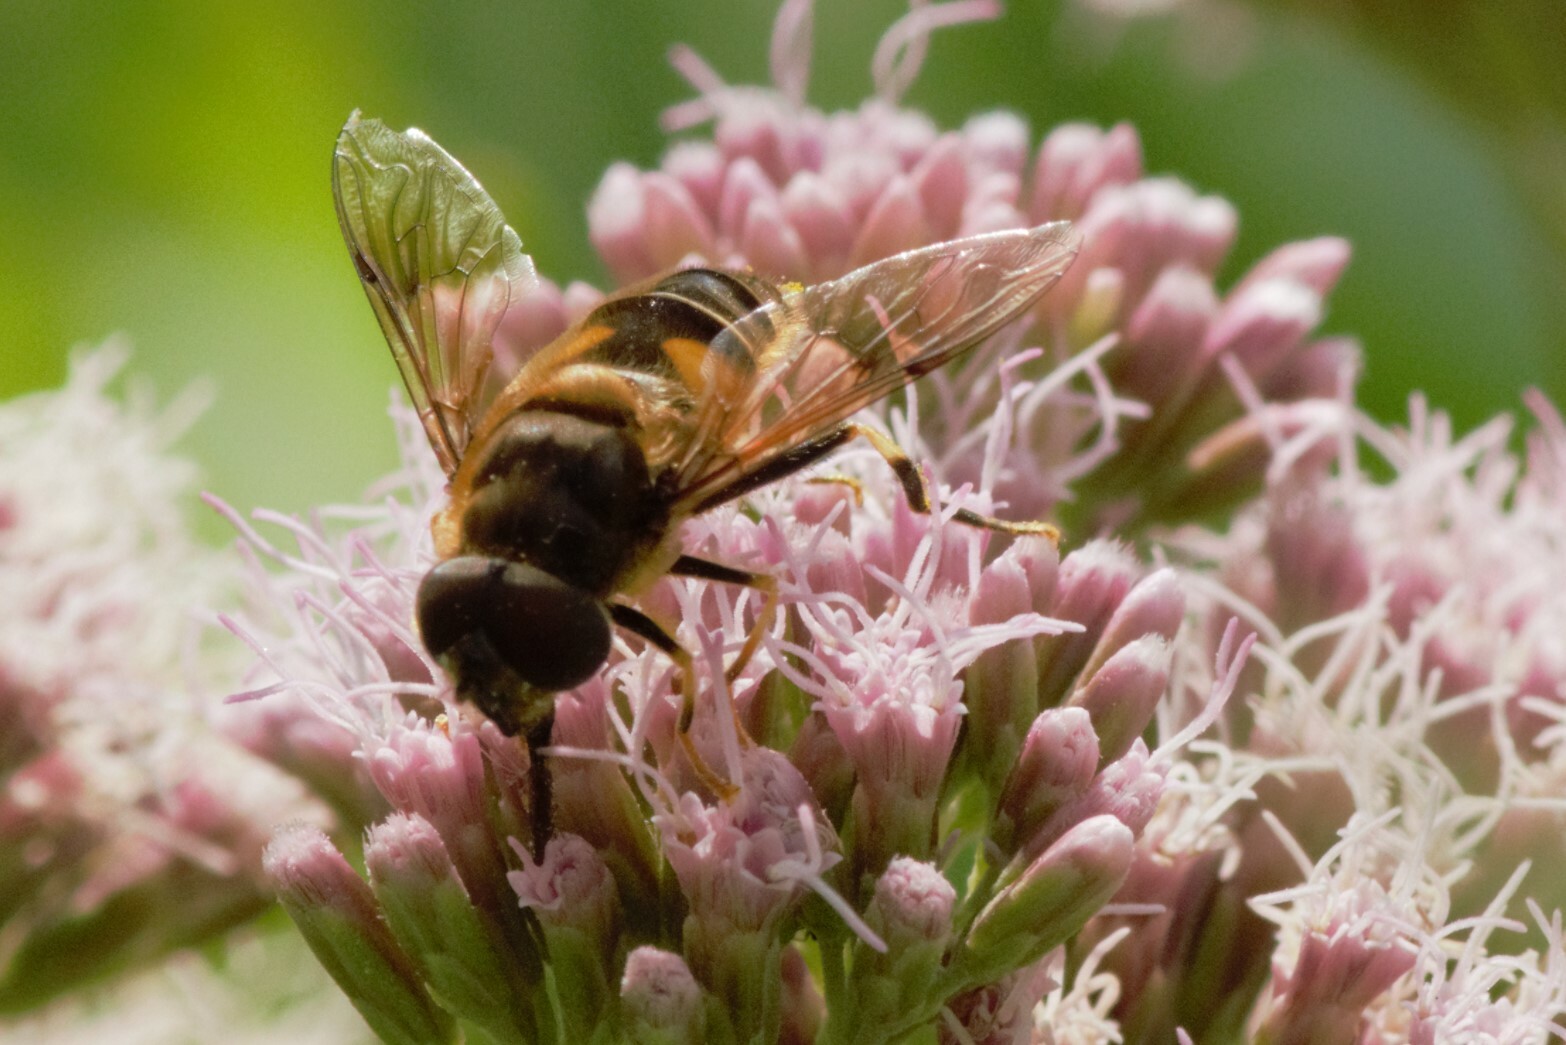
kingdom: Animalia
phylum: Arthropoda
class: Insecta
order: Diptera
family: Syrphidae
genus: Eristalis
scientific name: Eristalis pertinax
